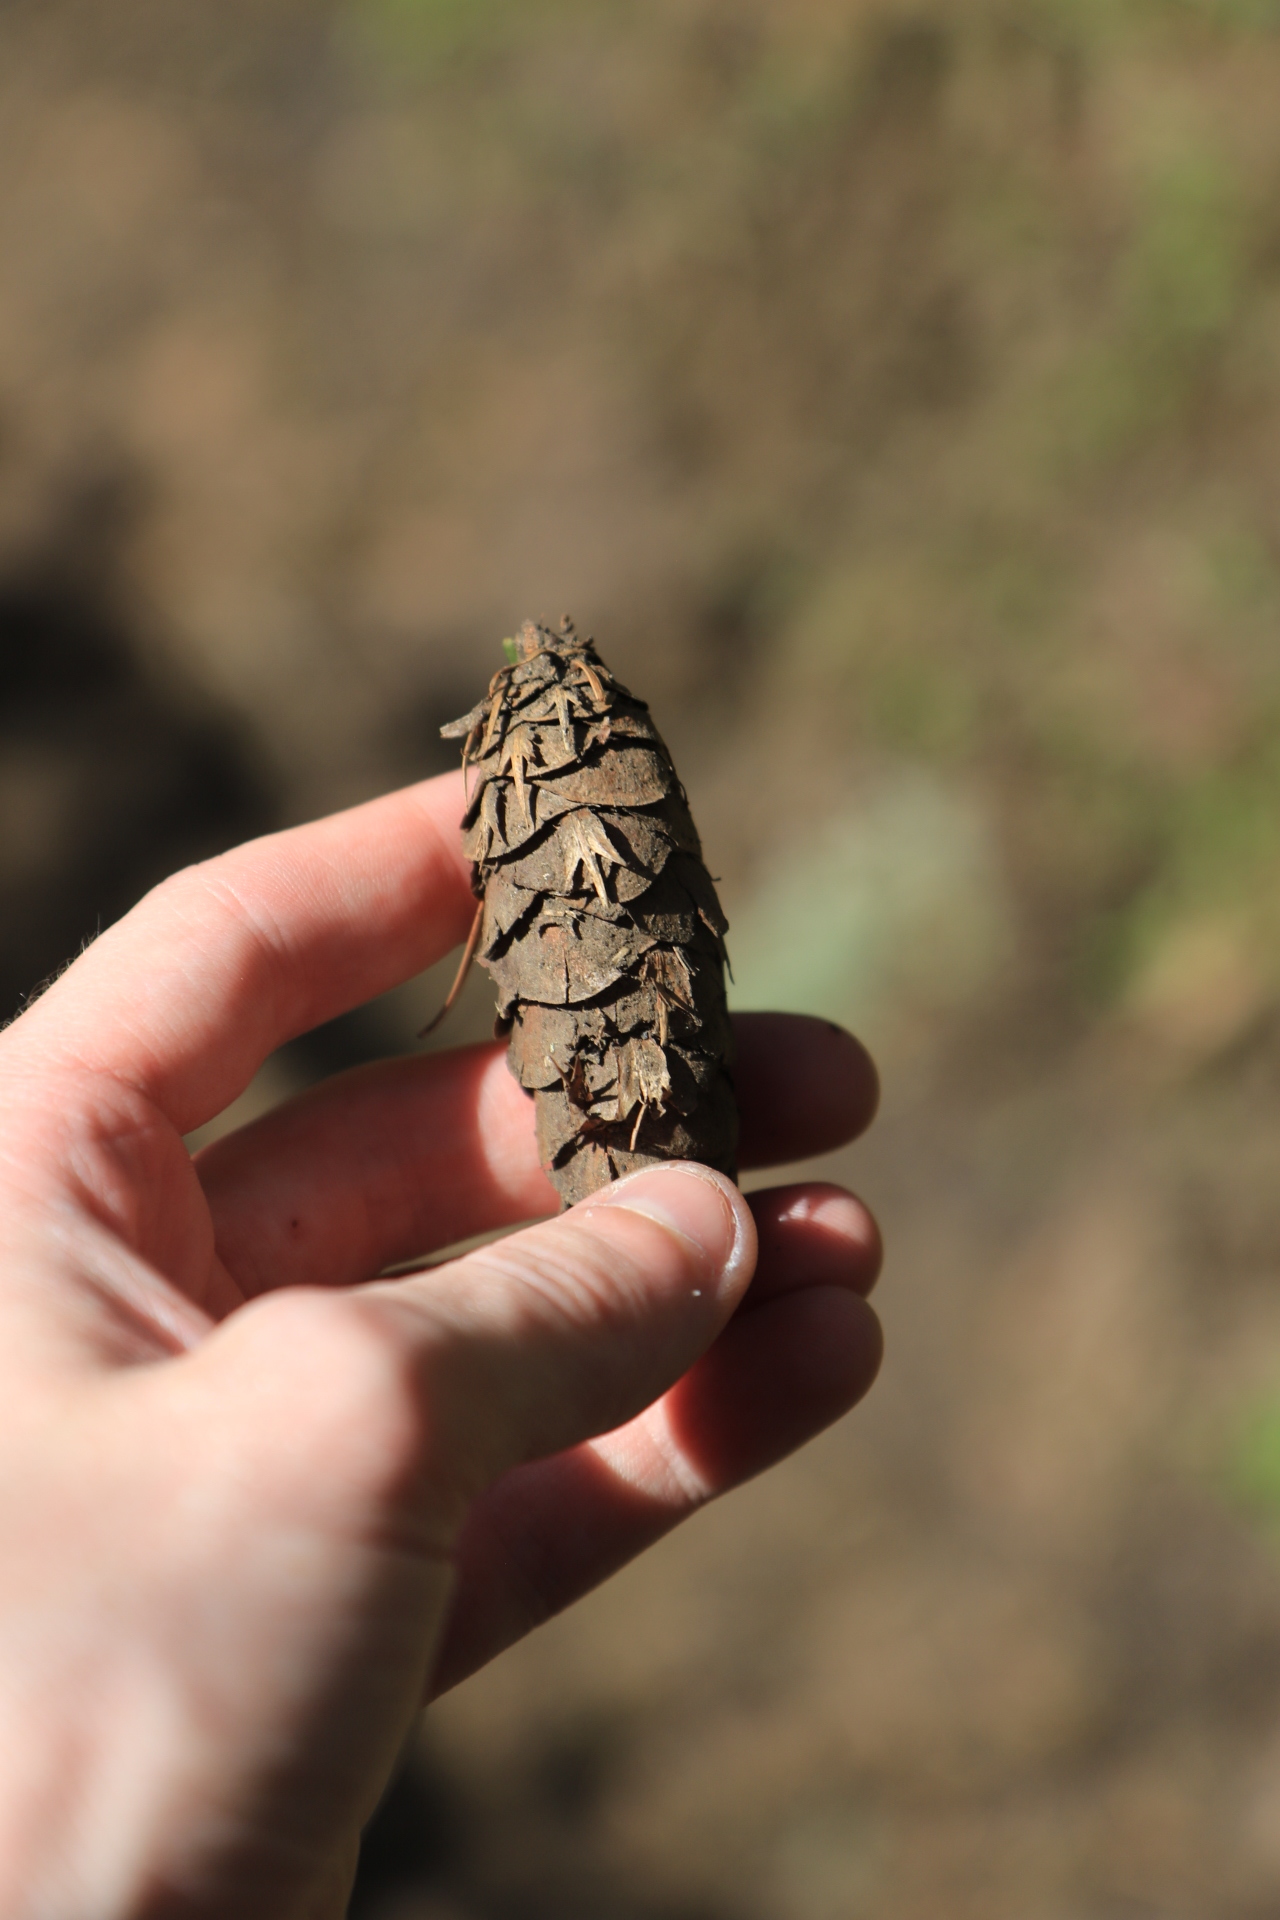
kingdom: Plantae
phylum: Tracheophyta
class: Pinopsida
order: Pinales
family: Pinaceae
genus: Pseudotsuga
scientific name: Pseudotsuga menziesii
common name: Douglas fir
